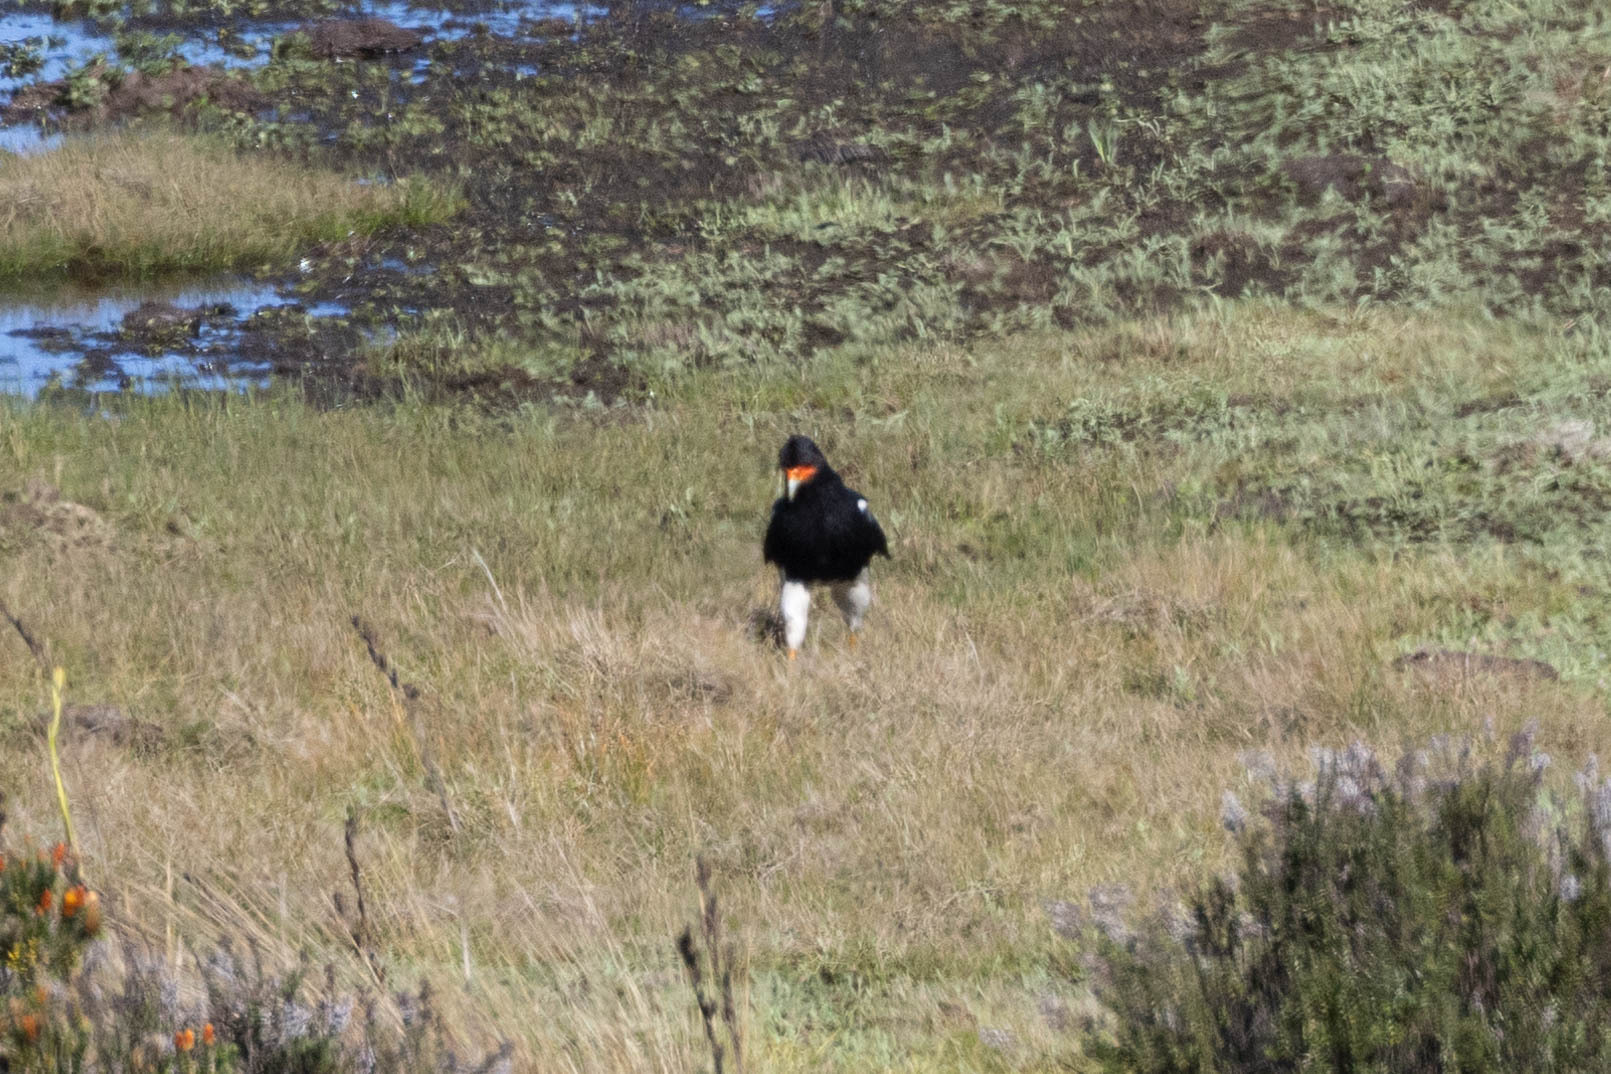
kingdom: Animalia
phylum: Chordata
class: Aves
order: Falconiformes
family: Falconidae
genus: Daptrius
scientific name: Daptrius
